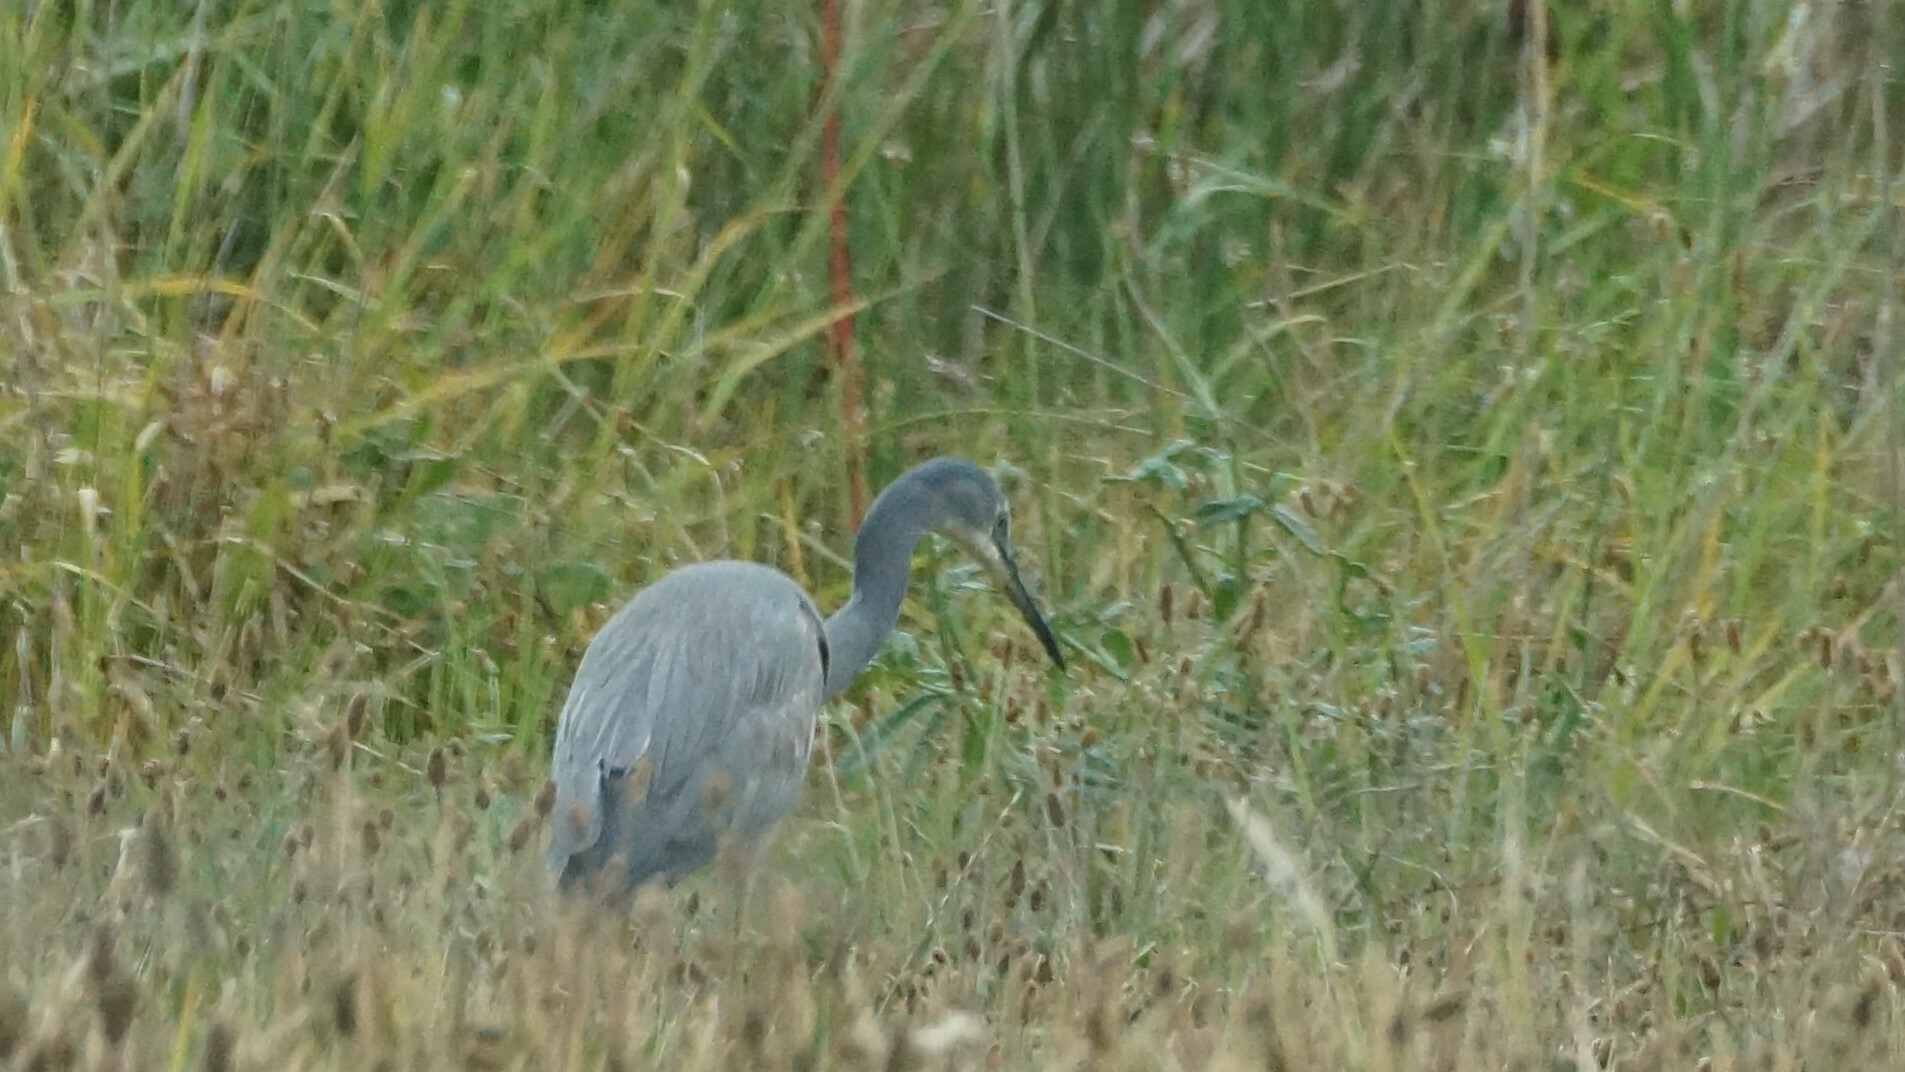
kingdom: Animalia
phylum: Chordata
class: Aves
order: Pelecaniformes
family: Ardeidae
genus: Egretta
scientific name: Egretta novaehollandiae
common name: White-faced heron
